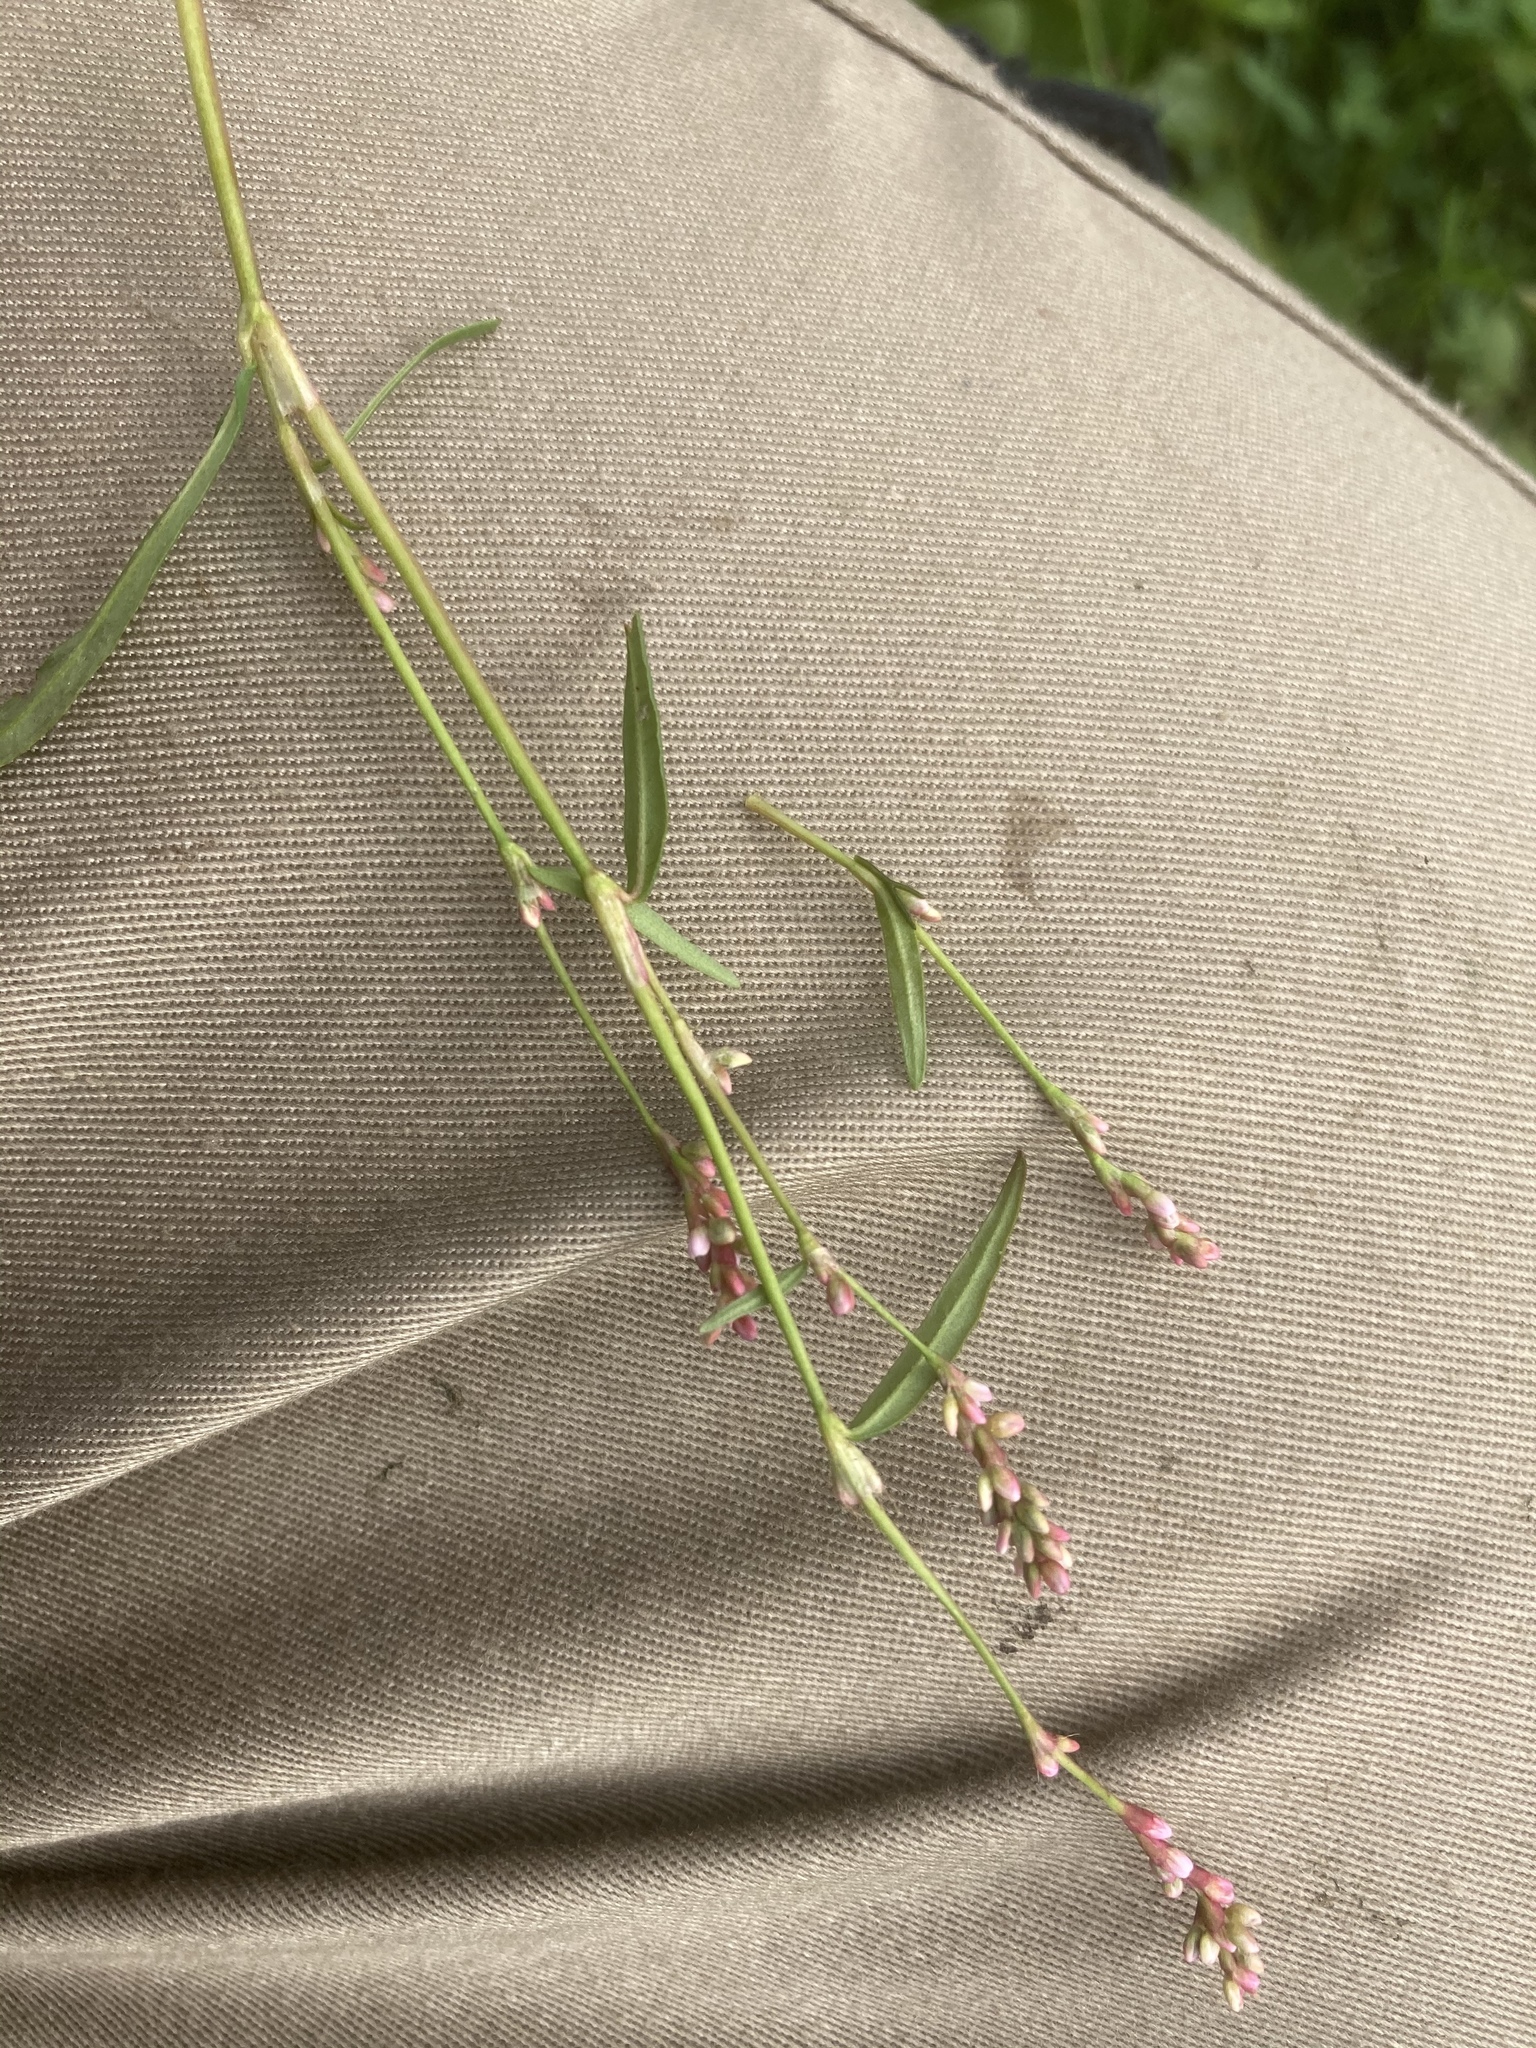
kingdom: Plantae
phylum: Tracheophyta
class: Magnoliopsida
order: Caryophyllales
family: Polygonaceae
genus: Persicaria
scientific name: Persicaria minor
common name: Small water-pepper
